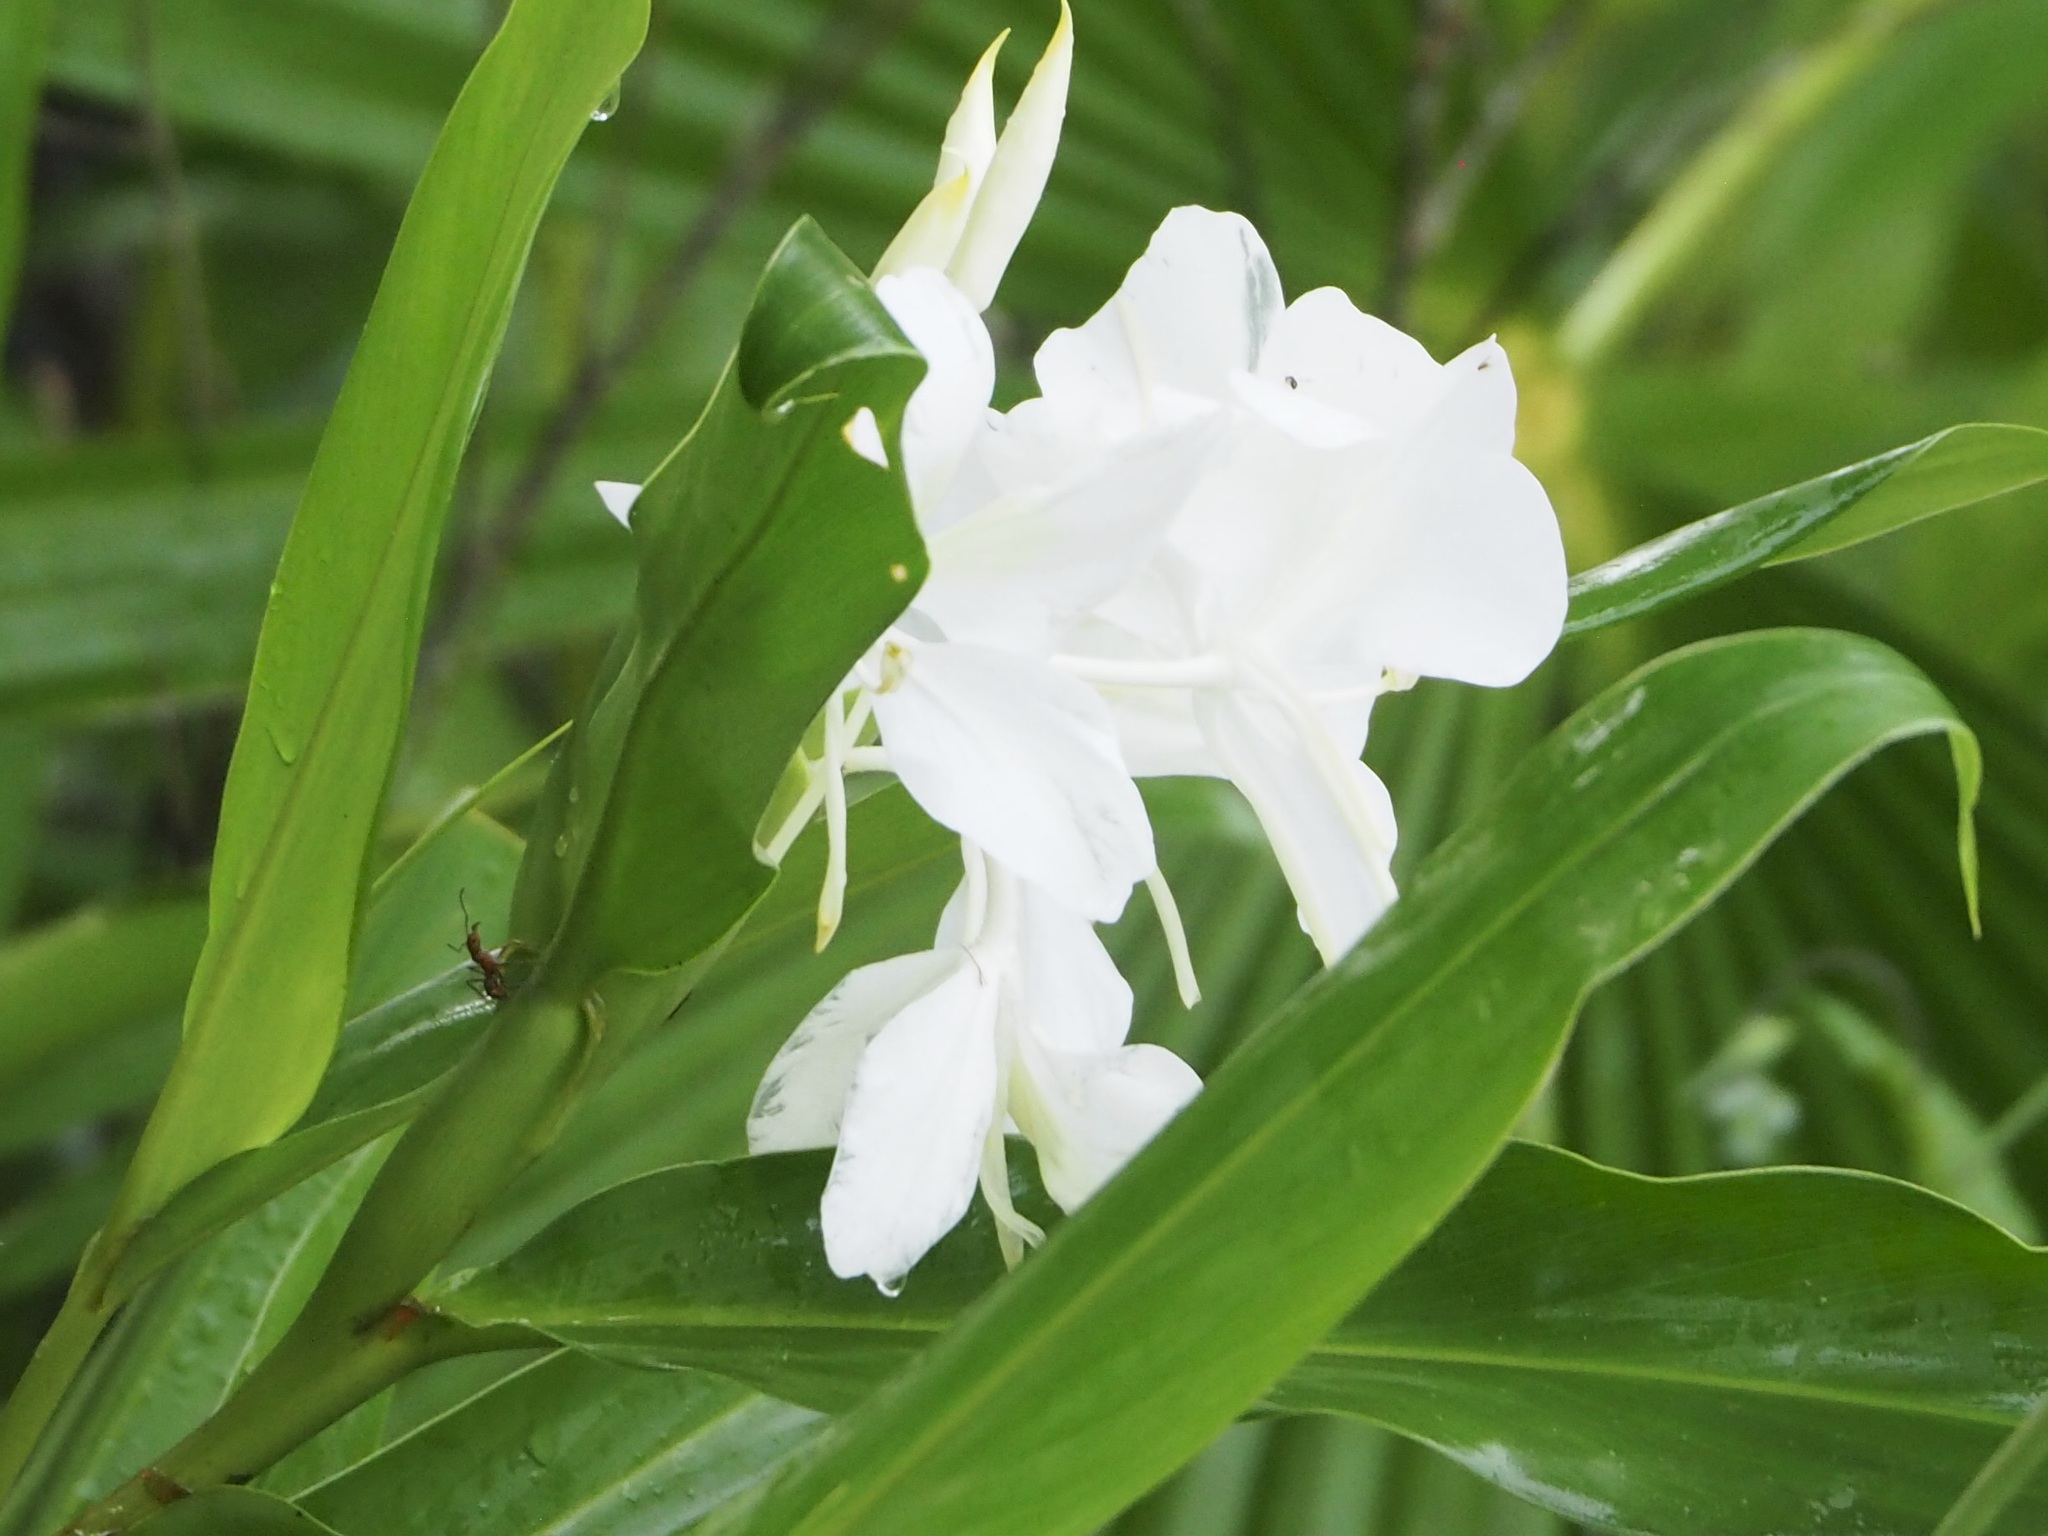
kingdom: Plantae
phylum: Tracheophyta
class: Liliopsida
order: Zingiberales
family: Zingiberaceae
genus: Hedychium
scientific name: Hedychium coronarium
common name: White garland-lily
